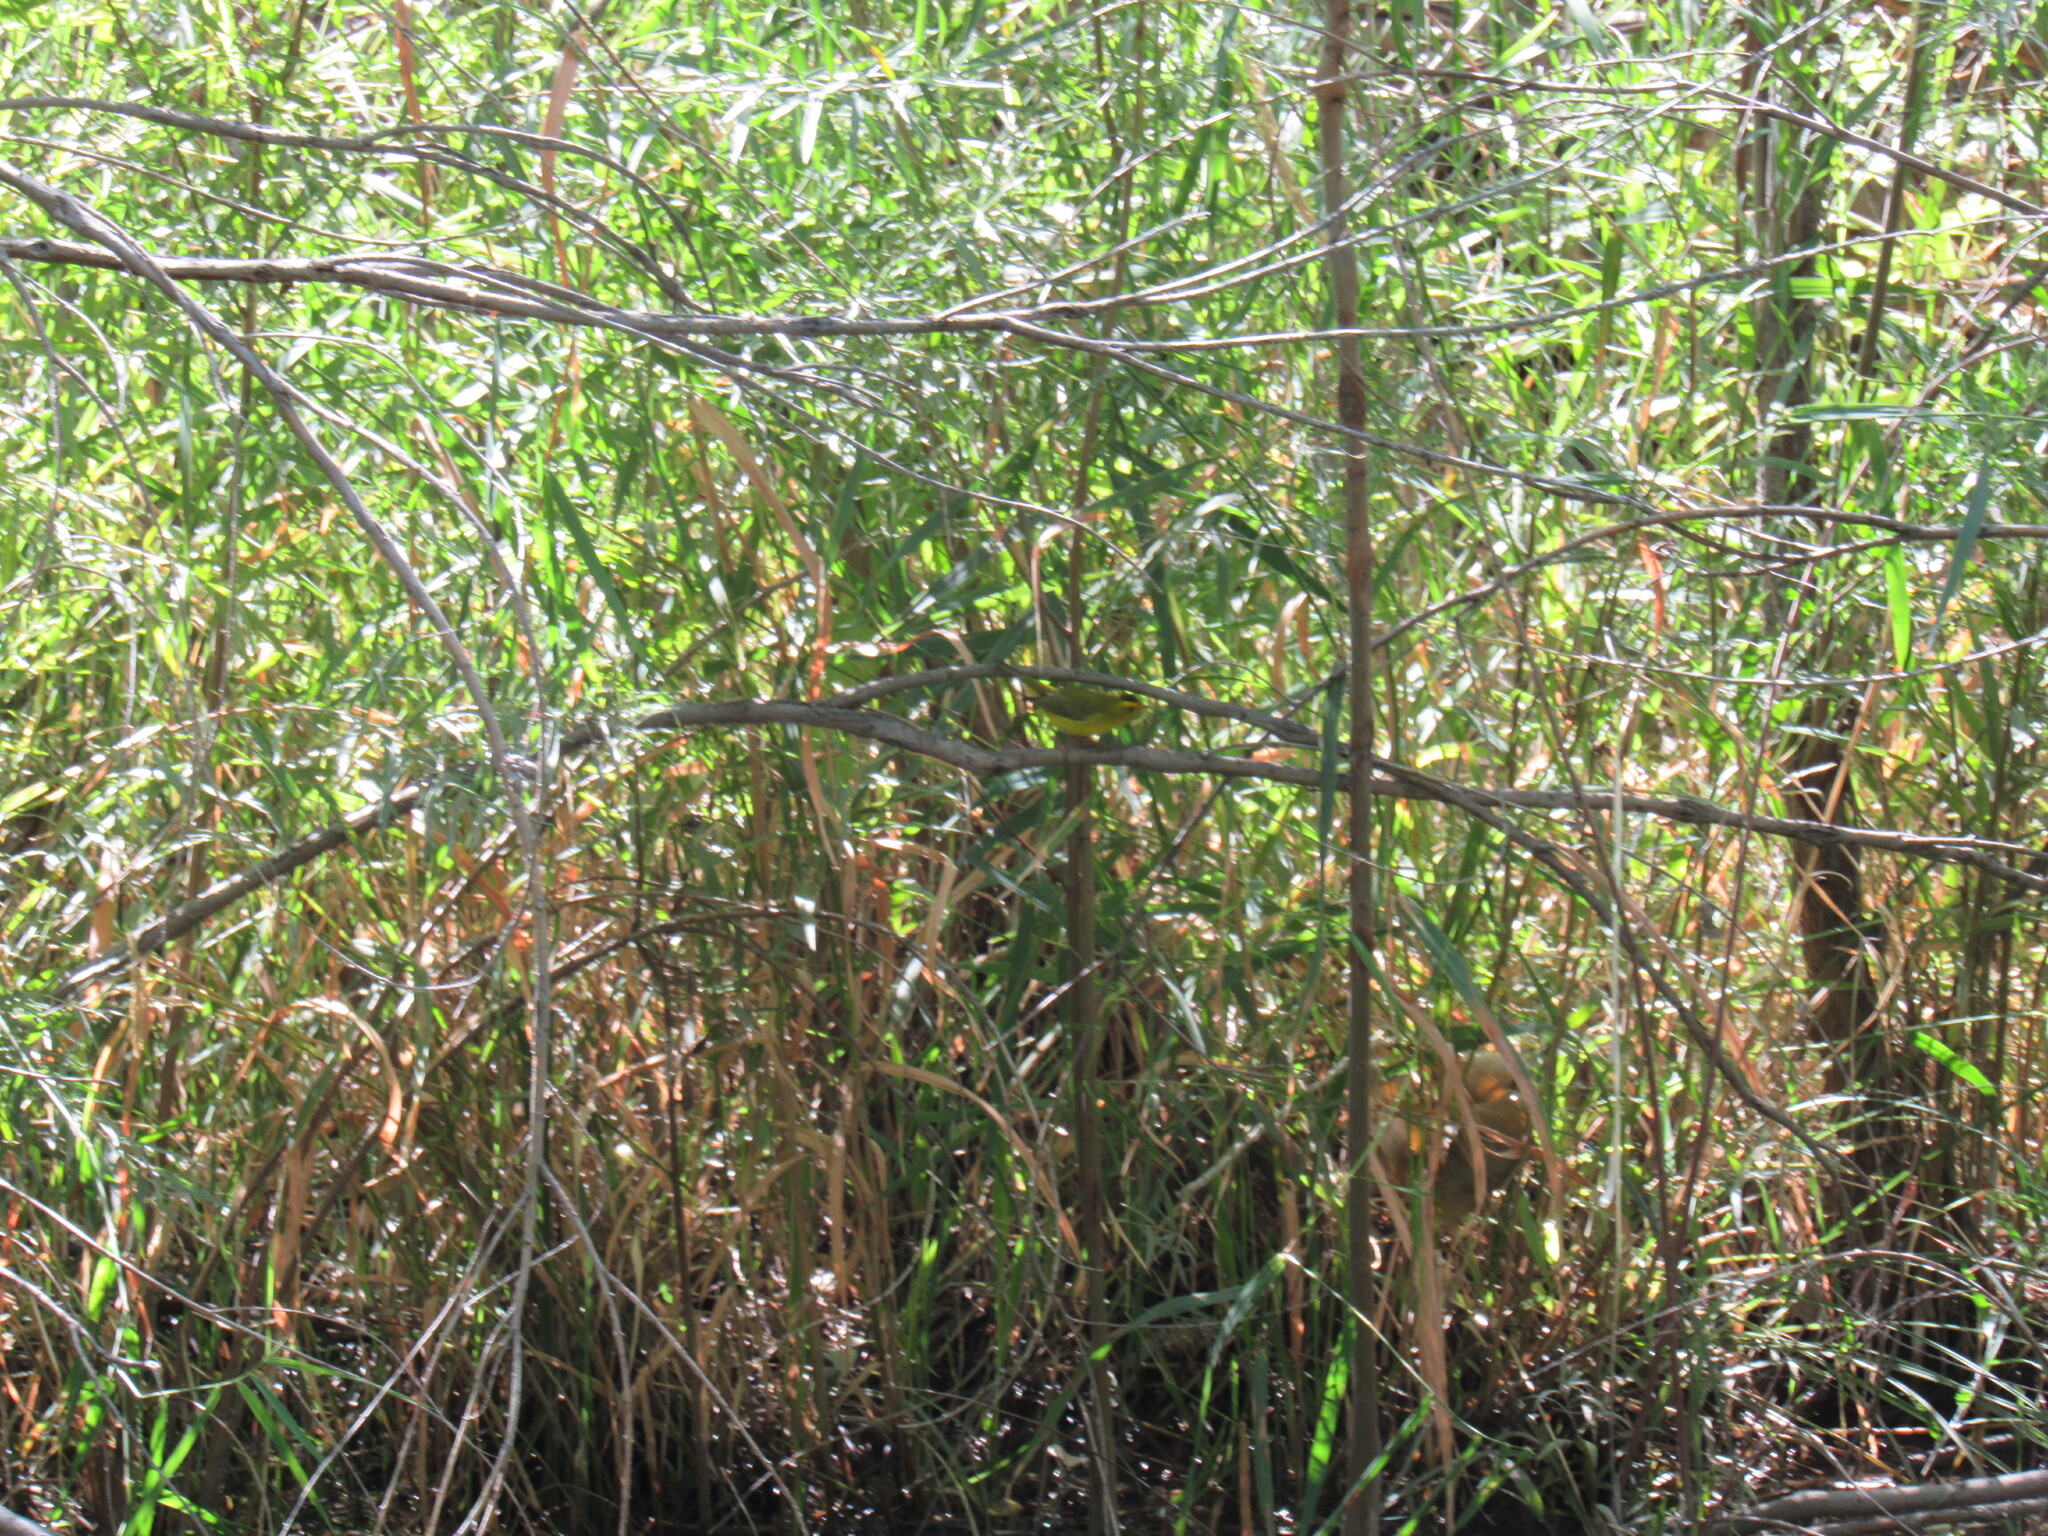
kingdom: Animalia
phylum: Chordata
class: Aves
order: Passeriformes
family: Parulidae
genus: Cardellina
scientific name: Cardellina pusilla
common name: Wilson's warbler
